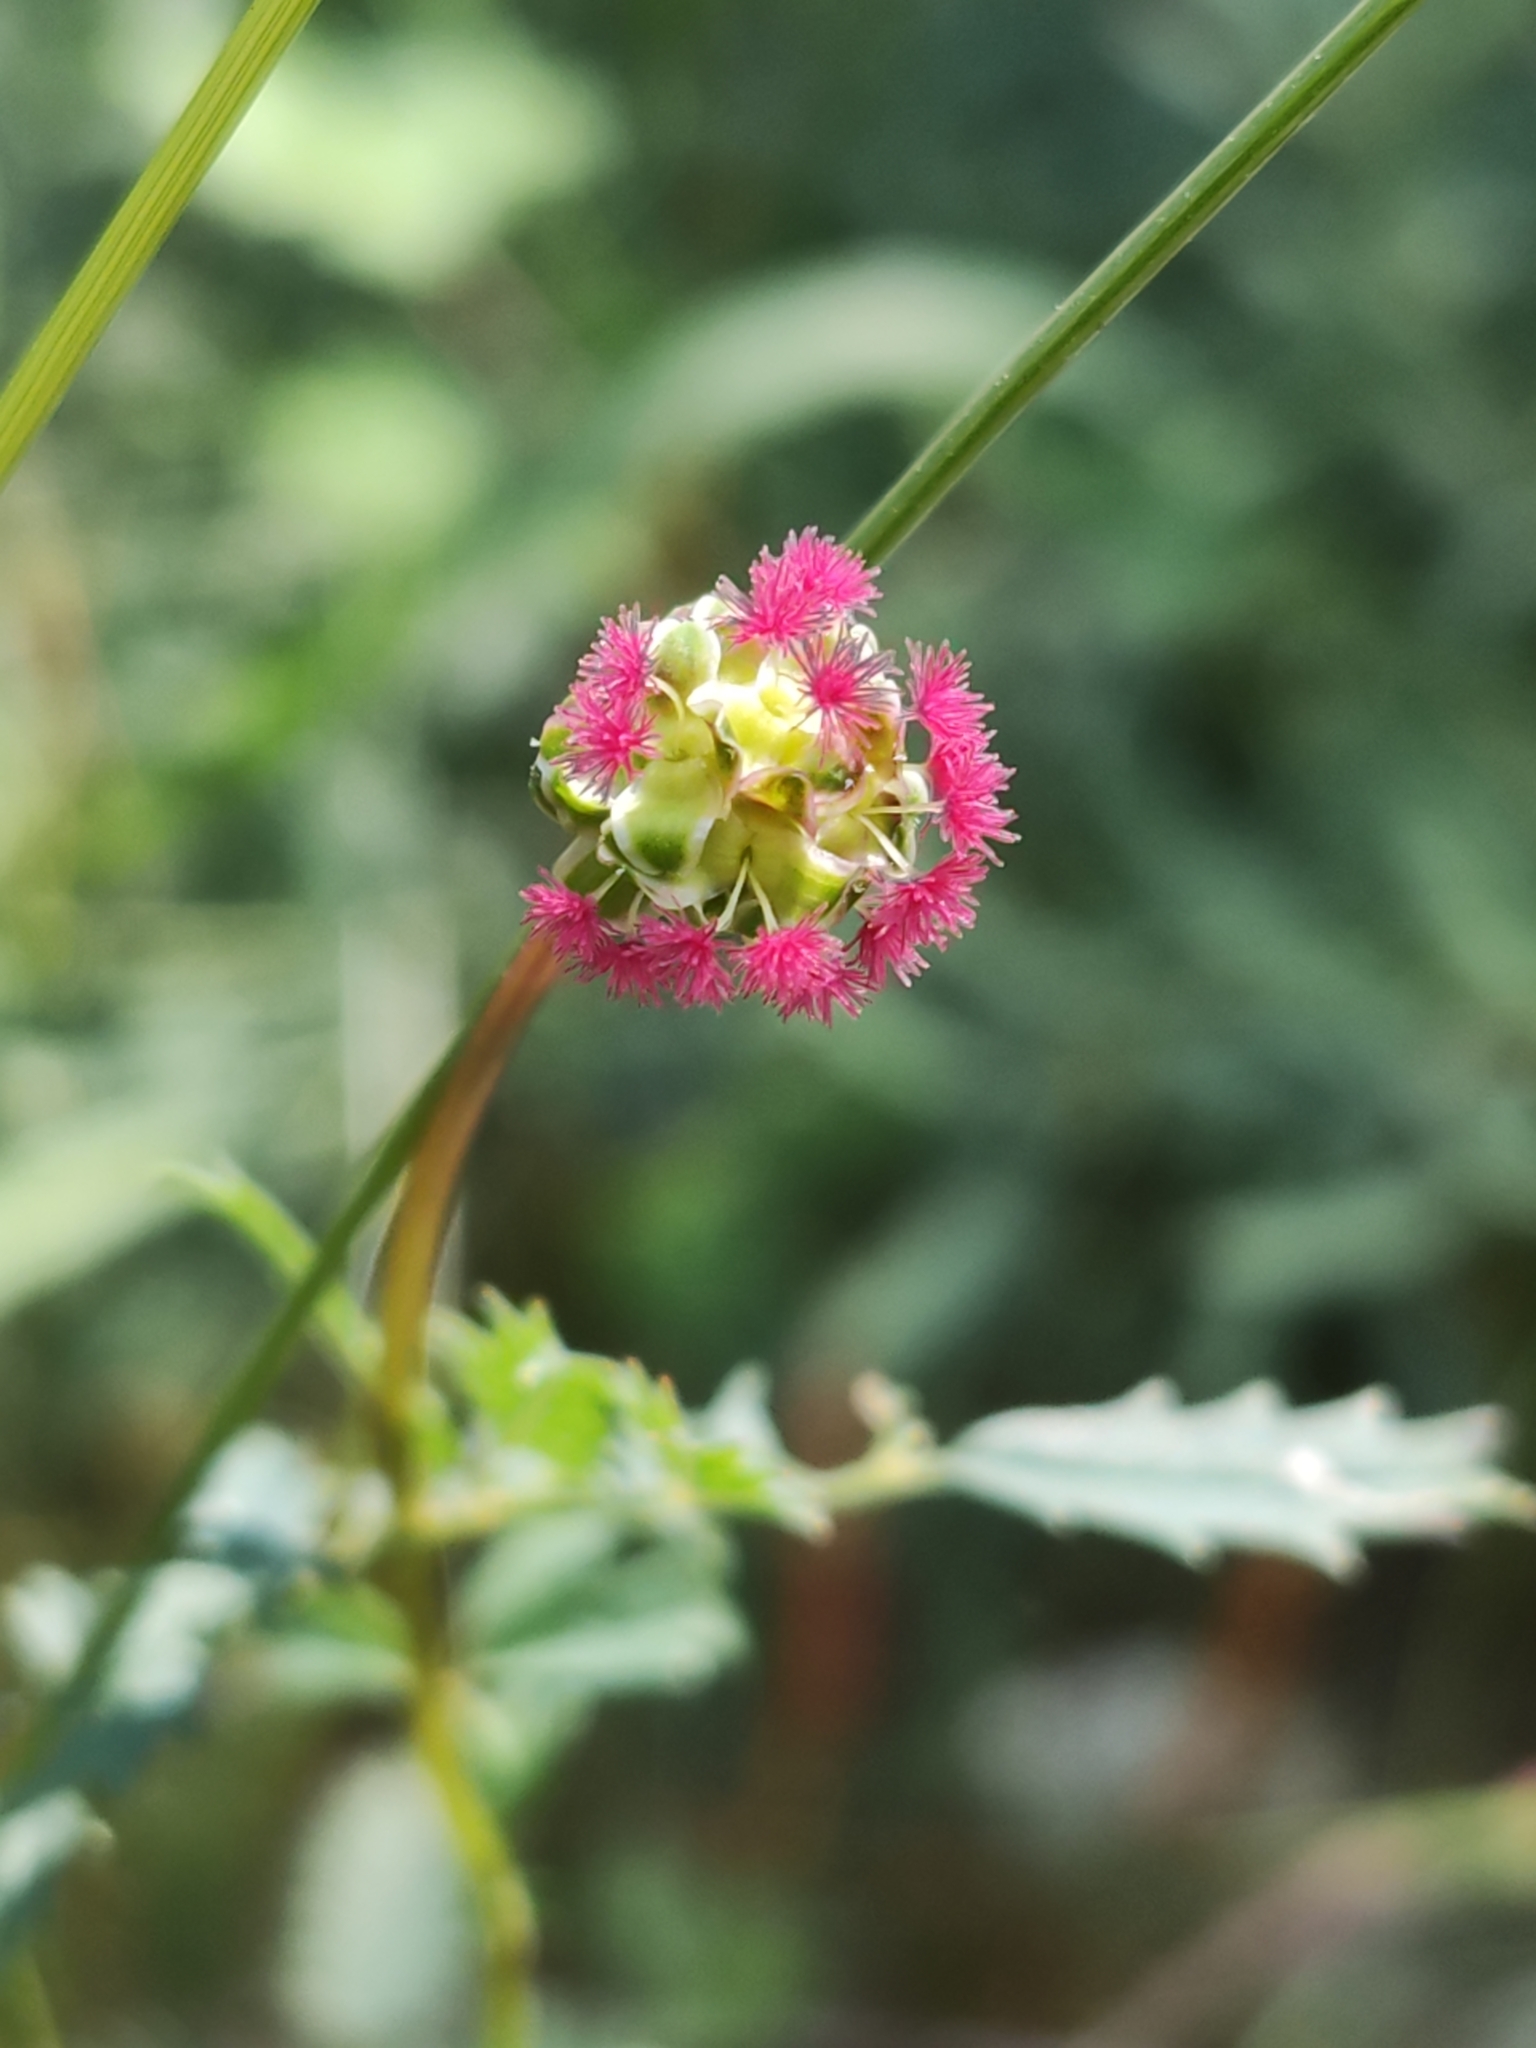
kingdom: Plantae
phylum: Tracheophyta
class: Magnoliopsida
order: Rosales
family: Rosaceae
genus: Poterium
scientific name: Poterium sanguisorba
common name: Salad burnet
